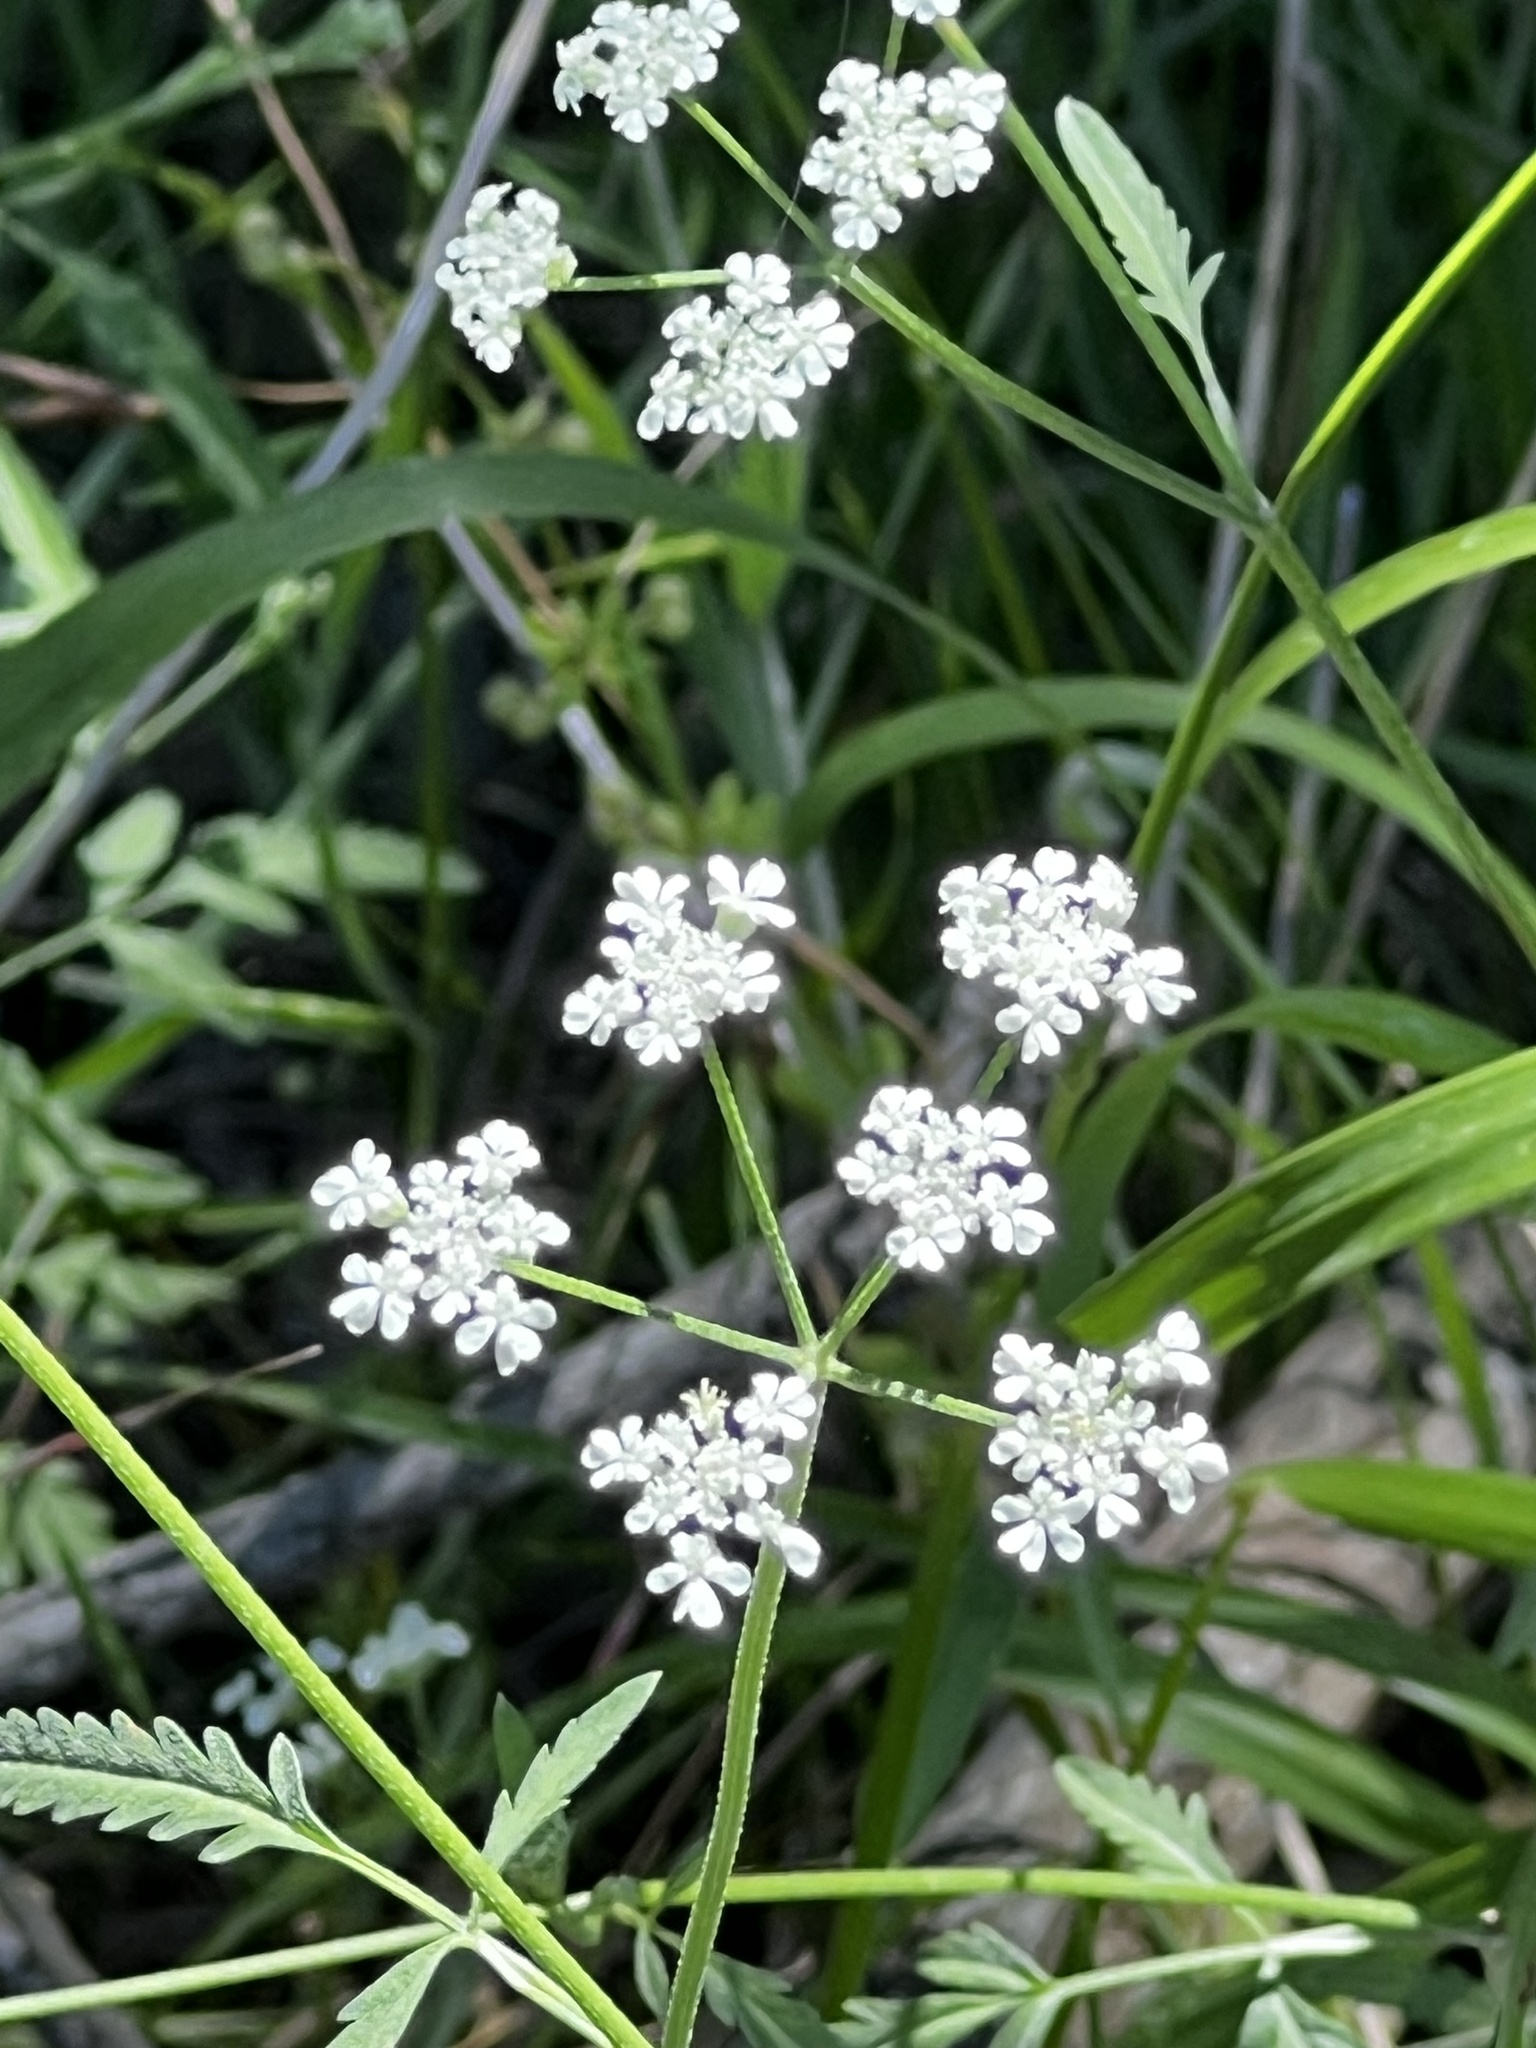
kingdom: Plantae
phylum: Tracheophyta
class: Magnoliopsida
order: Apiales
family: Apiaceae
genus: Torilis
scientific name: Torilis arvensis
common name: Spreading hedge-parsley
